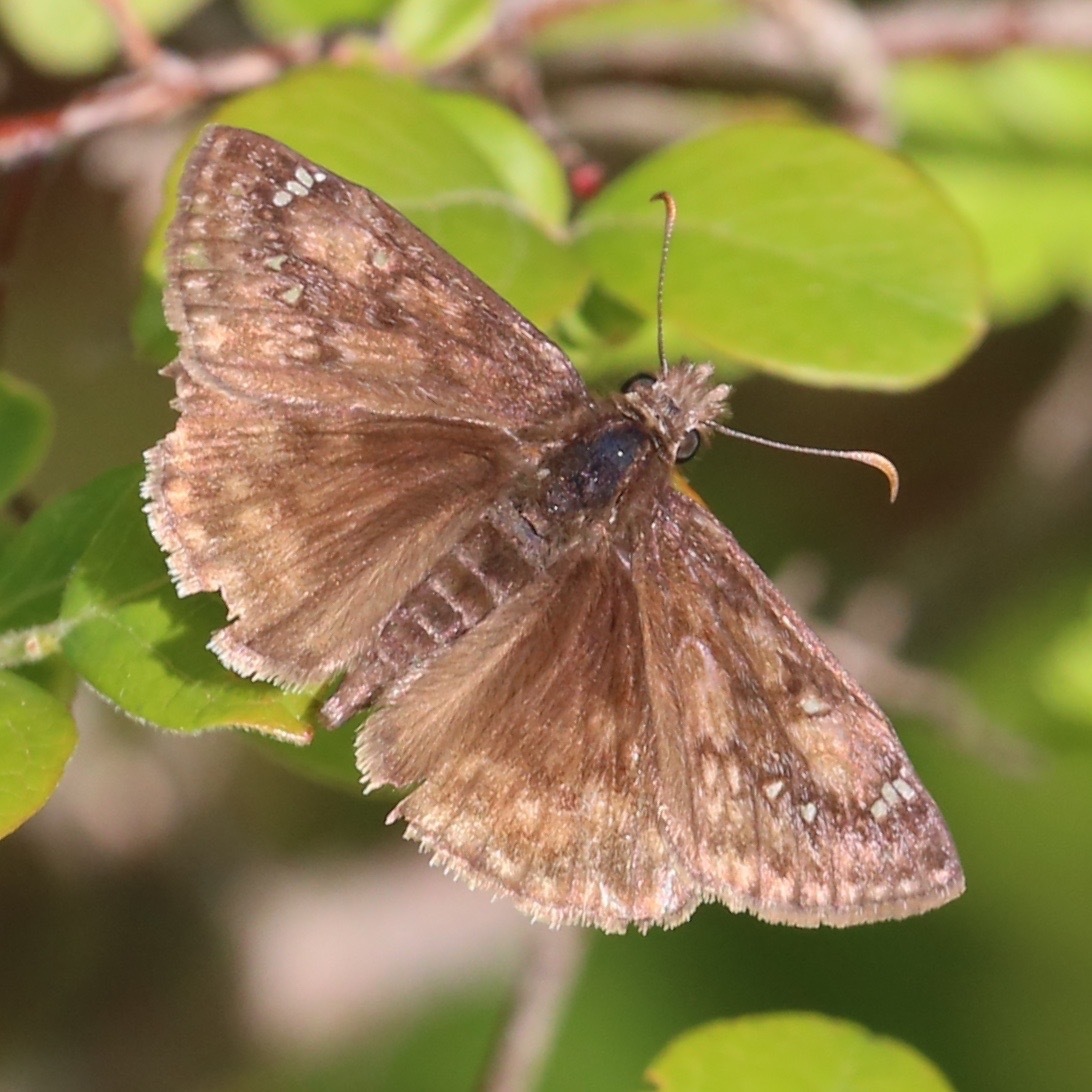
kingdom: Animalia
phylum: Arthropoda
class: Insecta
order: Lepidoptera
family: Hesperiidae
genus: Erynnis
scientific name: Erynnis juvenalis
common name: Juvenal's duskywing
